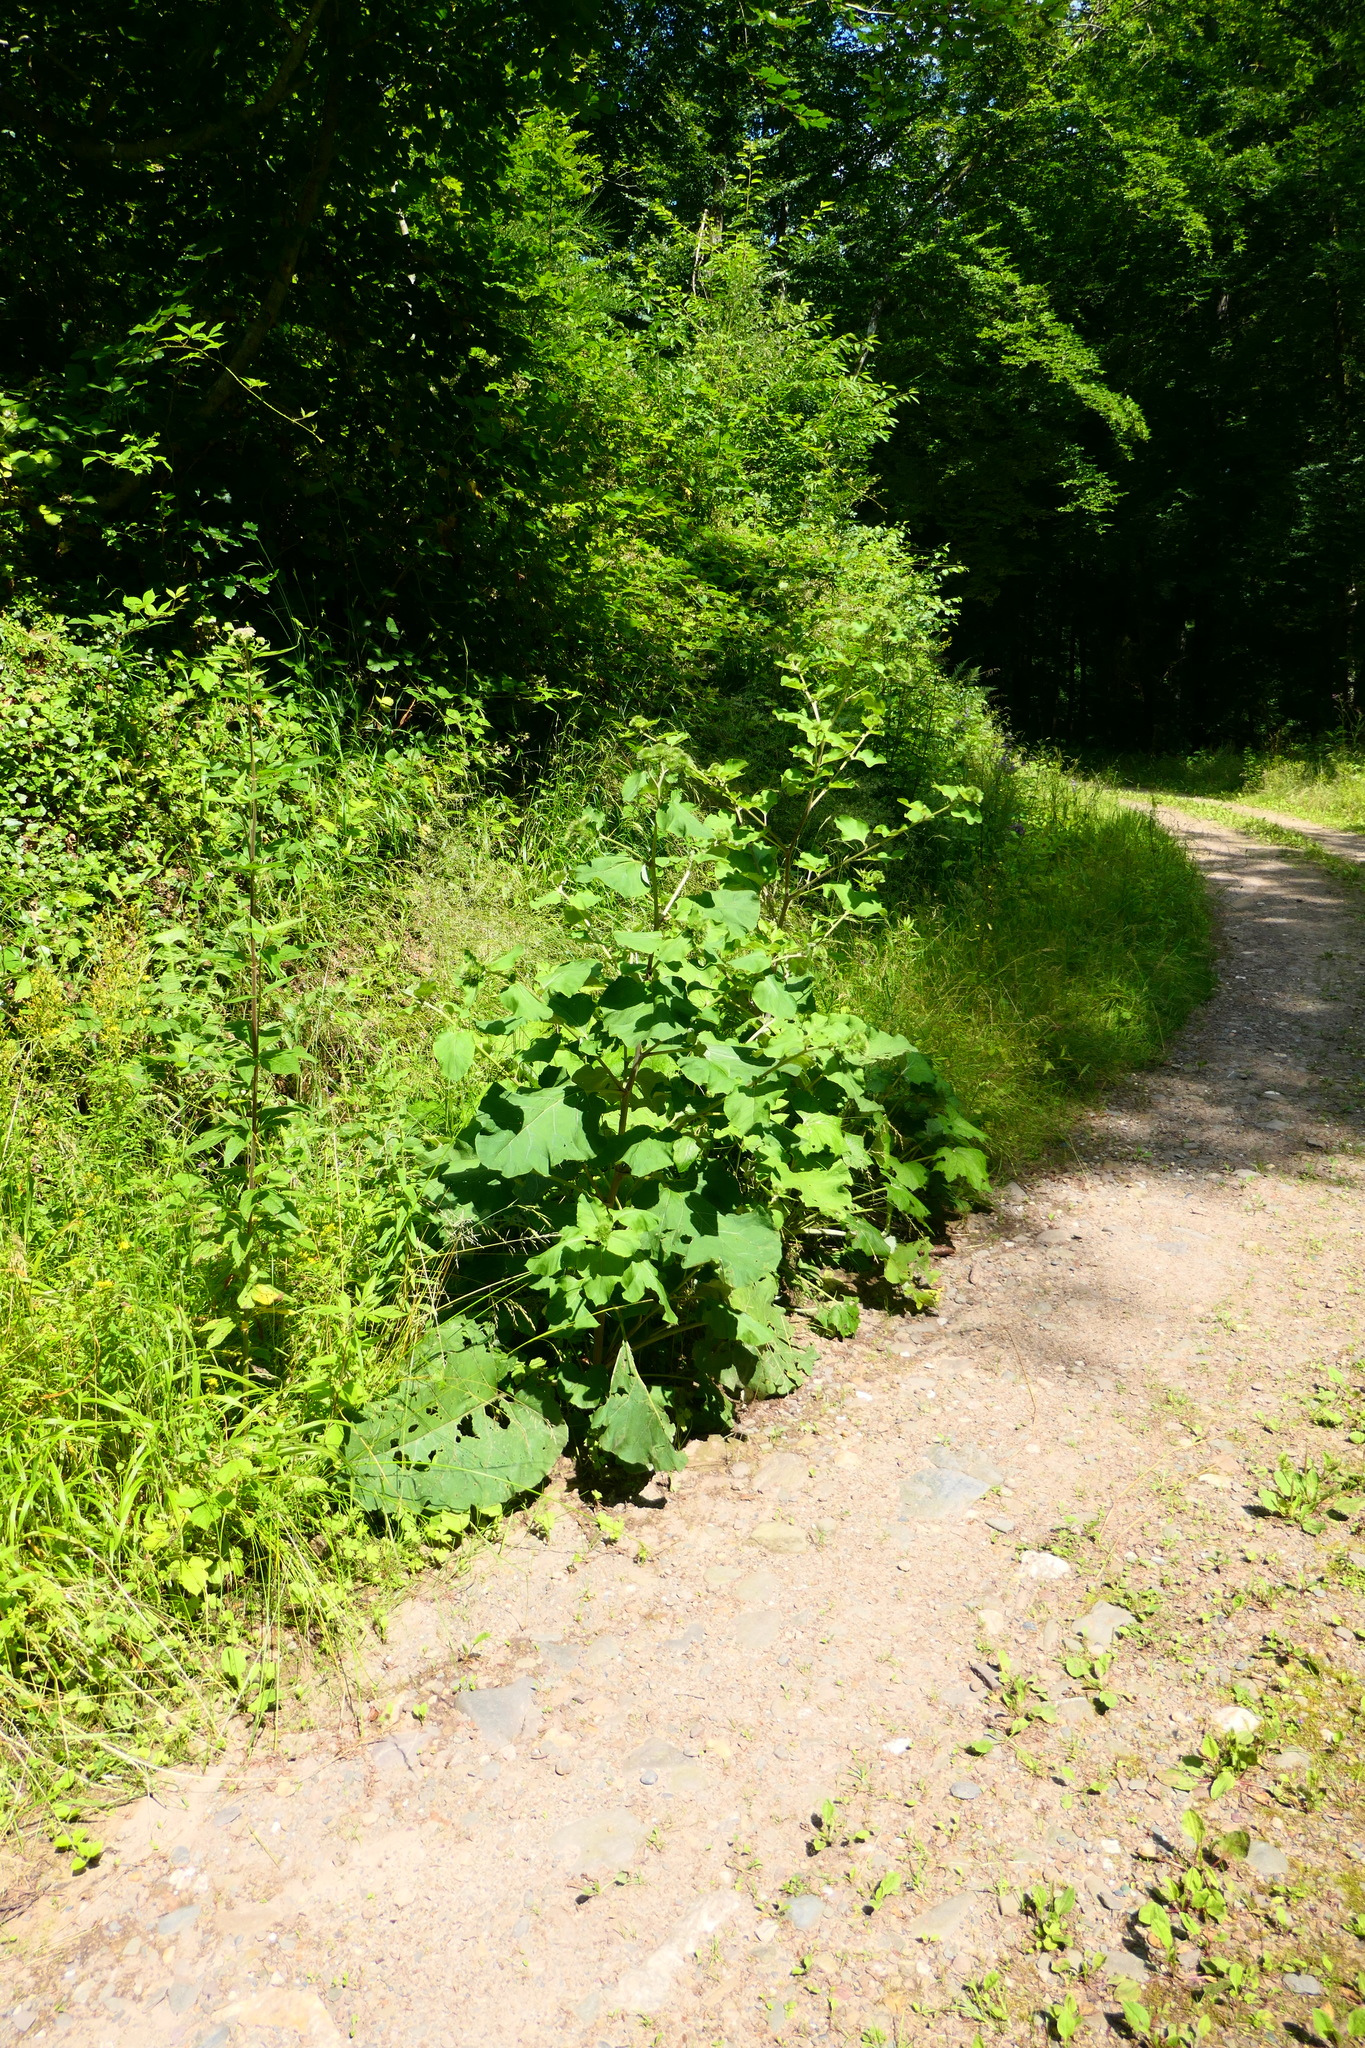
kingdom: Plantae
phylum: Tracheophyta
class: Magnoliopsida
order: Asterales
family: Asteraceae
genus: Arctium
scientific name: Arctium lappa
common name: Greater burdock
